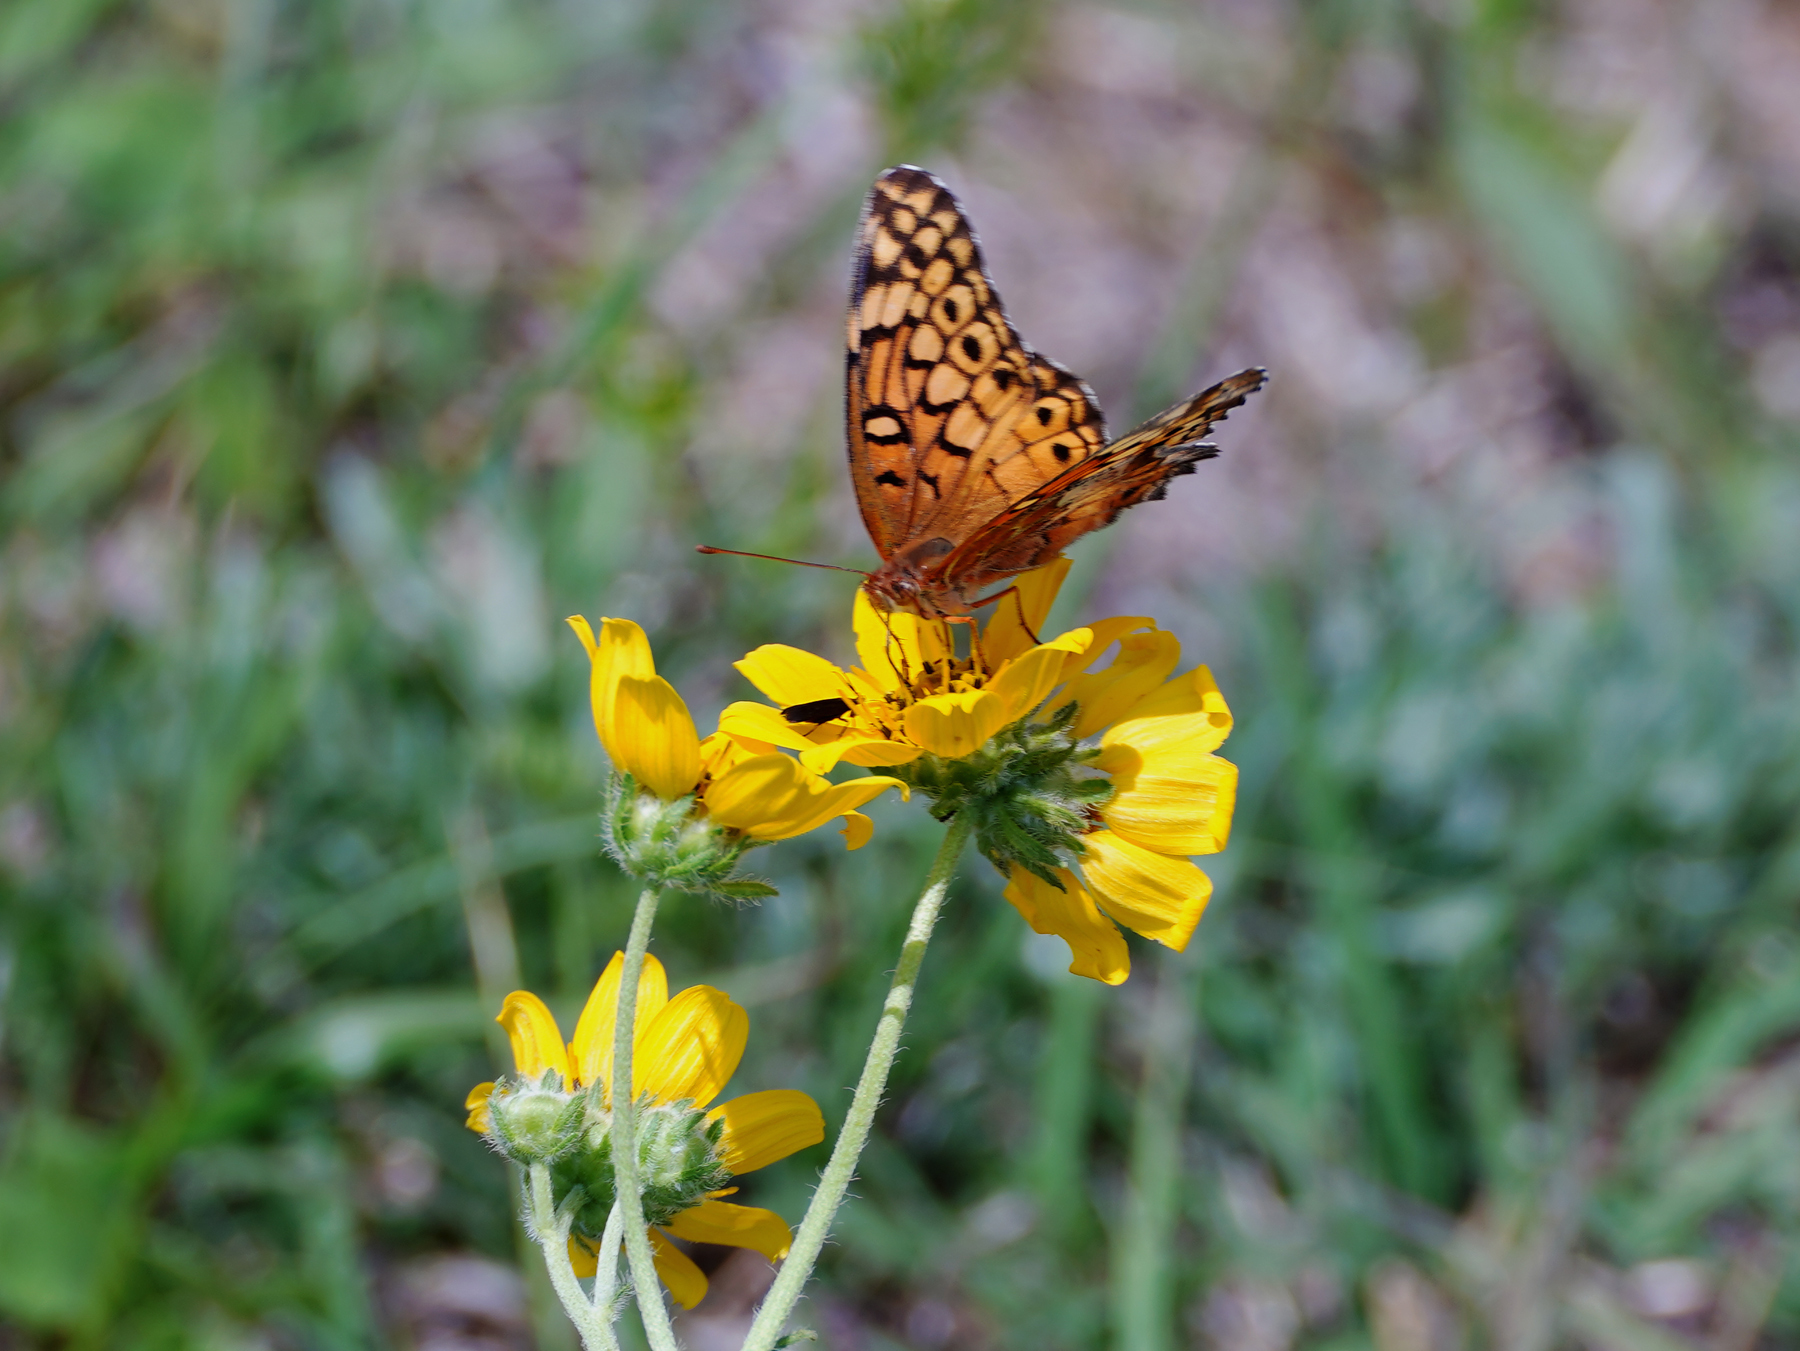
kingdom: Animalia
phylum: Arthropoda
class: Insecta
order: Lepidoptera
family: Nymphalidae
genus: Euptoieta
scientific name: Euptoieta claudia
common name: Variegated fritillary
